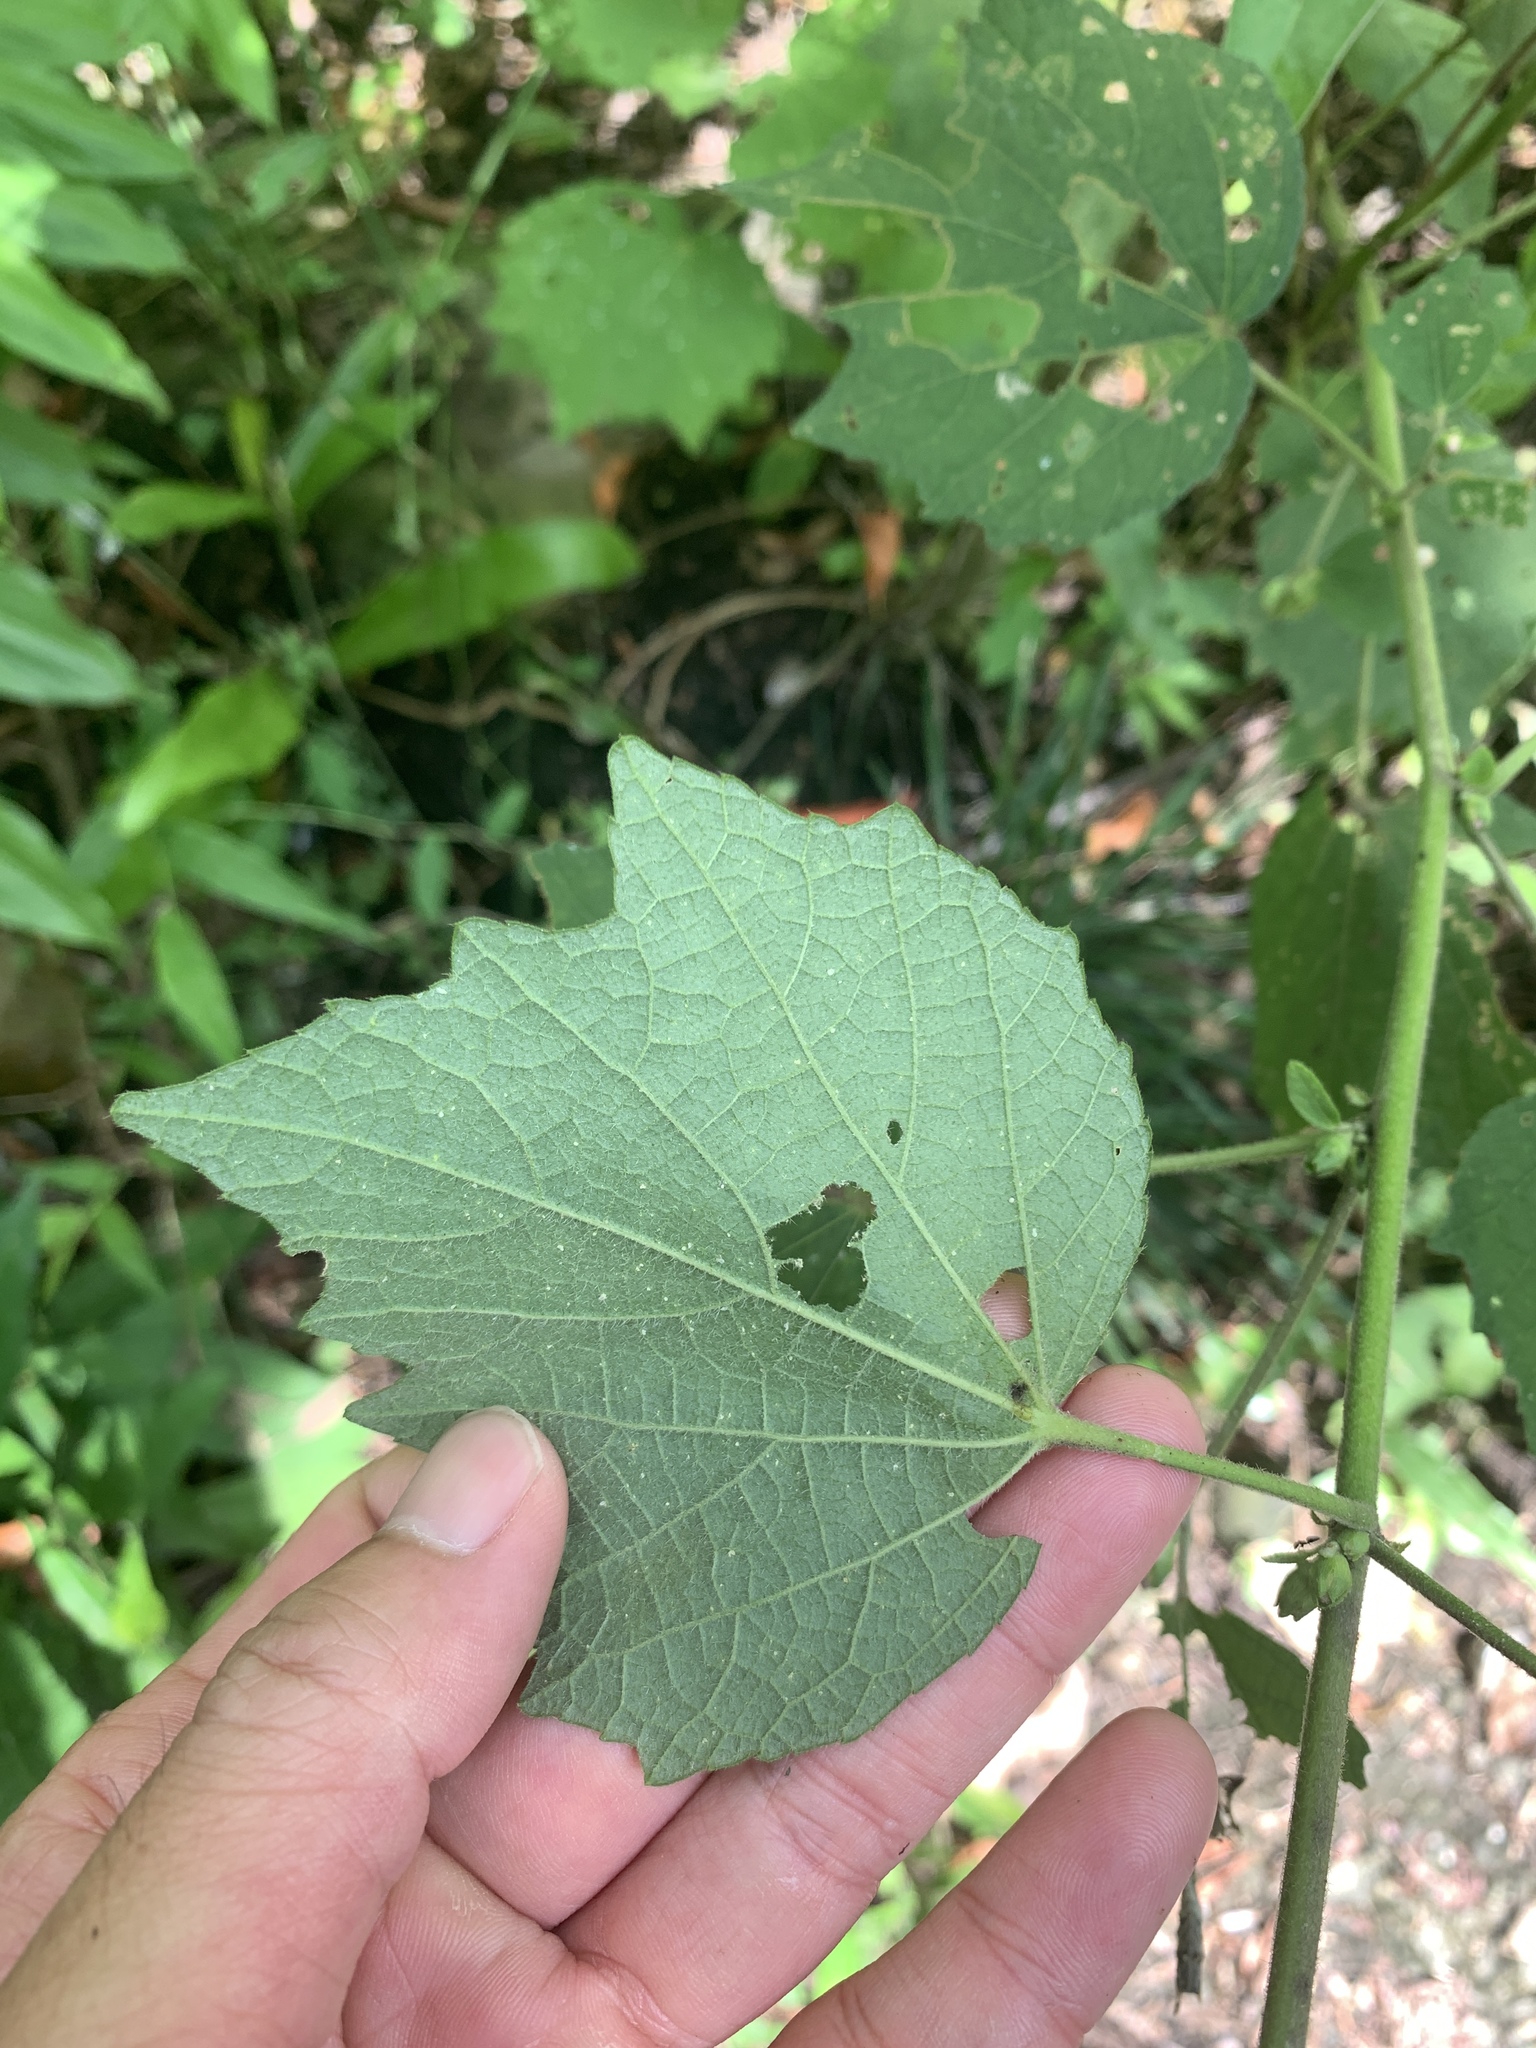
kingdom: Plantae
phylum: Tracheophyta
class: Magnoliopsida
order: Malvales
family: Malvaceae
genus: Urena
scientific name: Urena lobata
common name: Caesarweed
